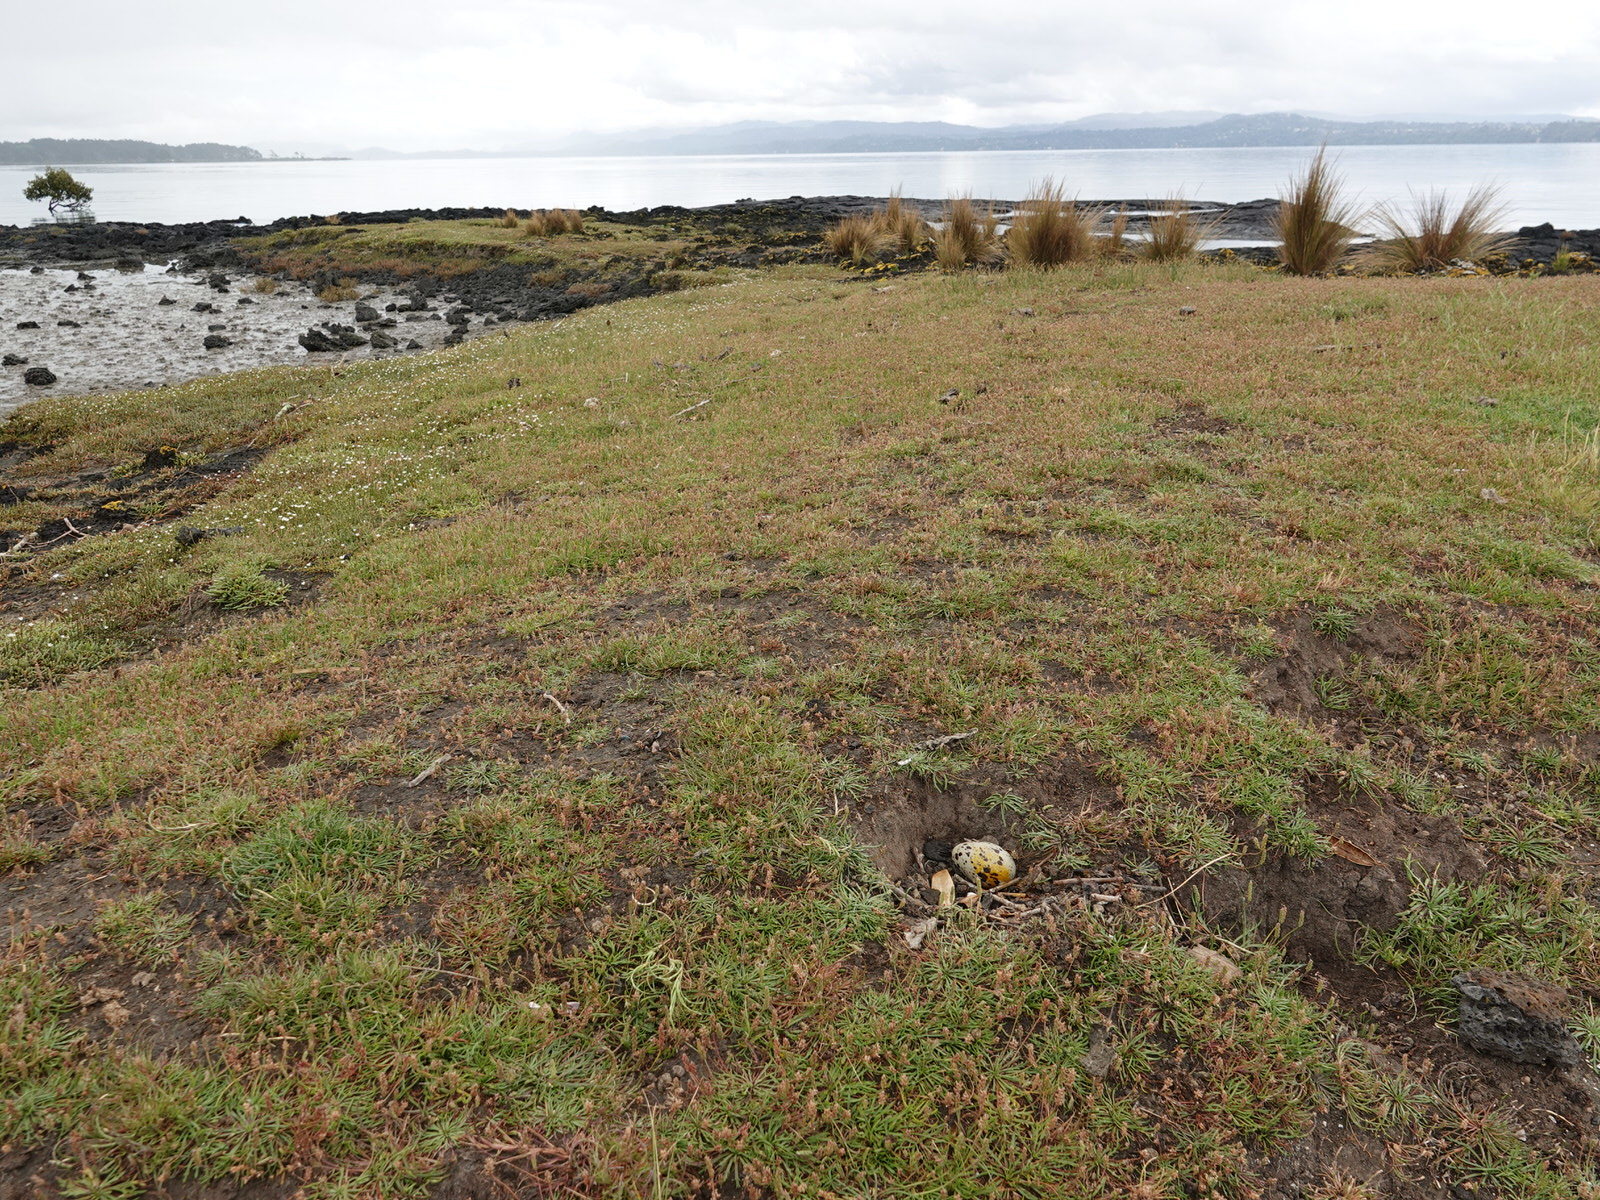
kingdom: Animalia
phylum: Chordata
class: Aves
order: Charadriiformes
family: Haematopodidae
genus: Haematopus
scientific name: Haematopus unicolor
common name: Variable oystercatcher
